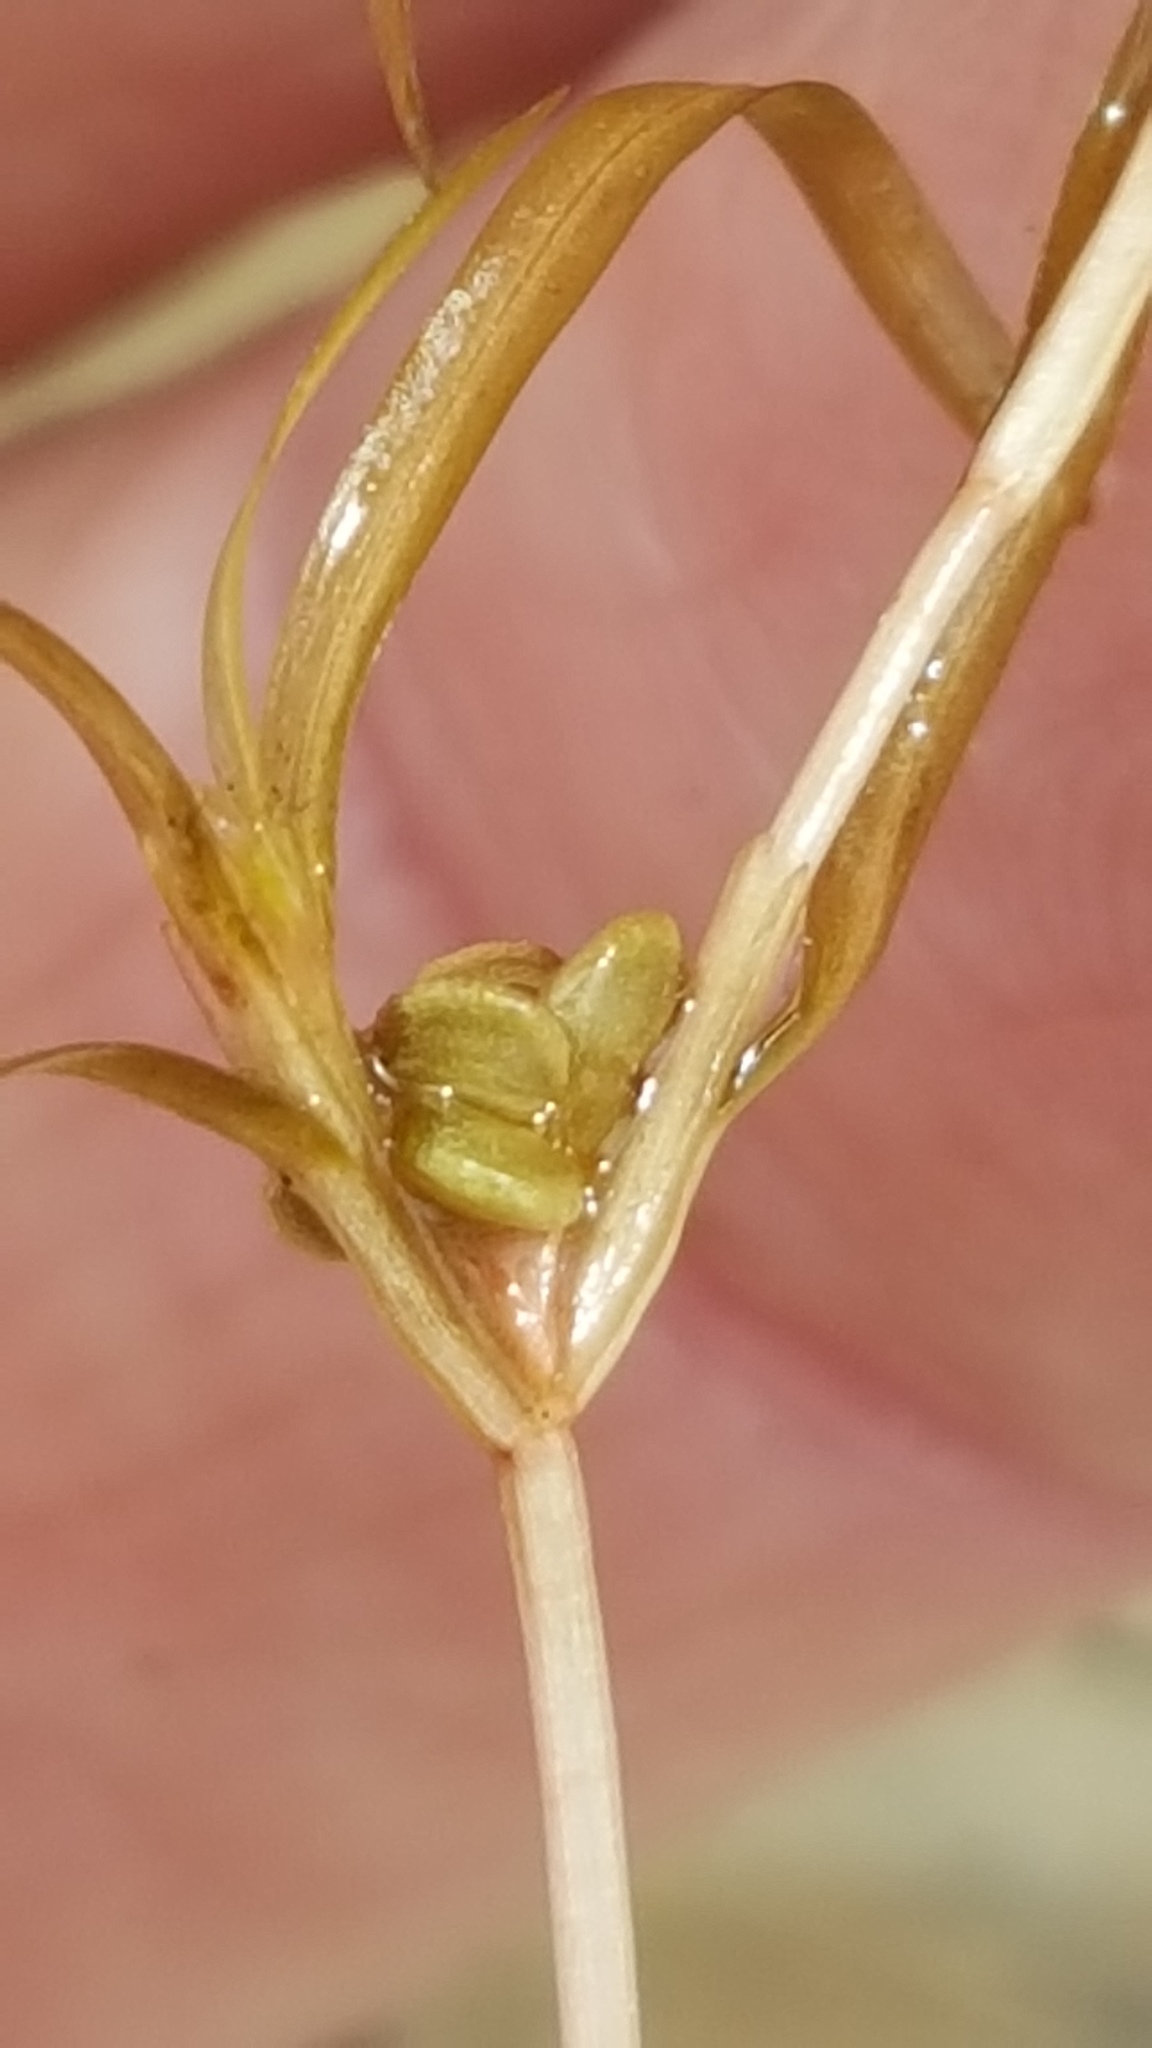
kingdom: Plantae
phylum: Tracheophyta
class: Liliopsida
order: Alismatales
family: Potamogetonaceae
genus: Potamogeton
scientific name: Potamogeton spirillus
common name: Northern snail-seed pondweed
